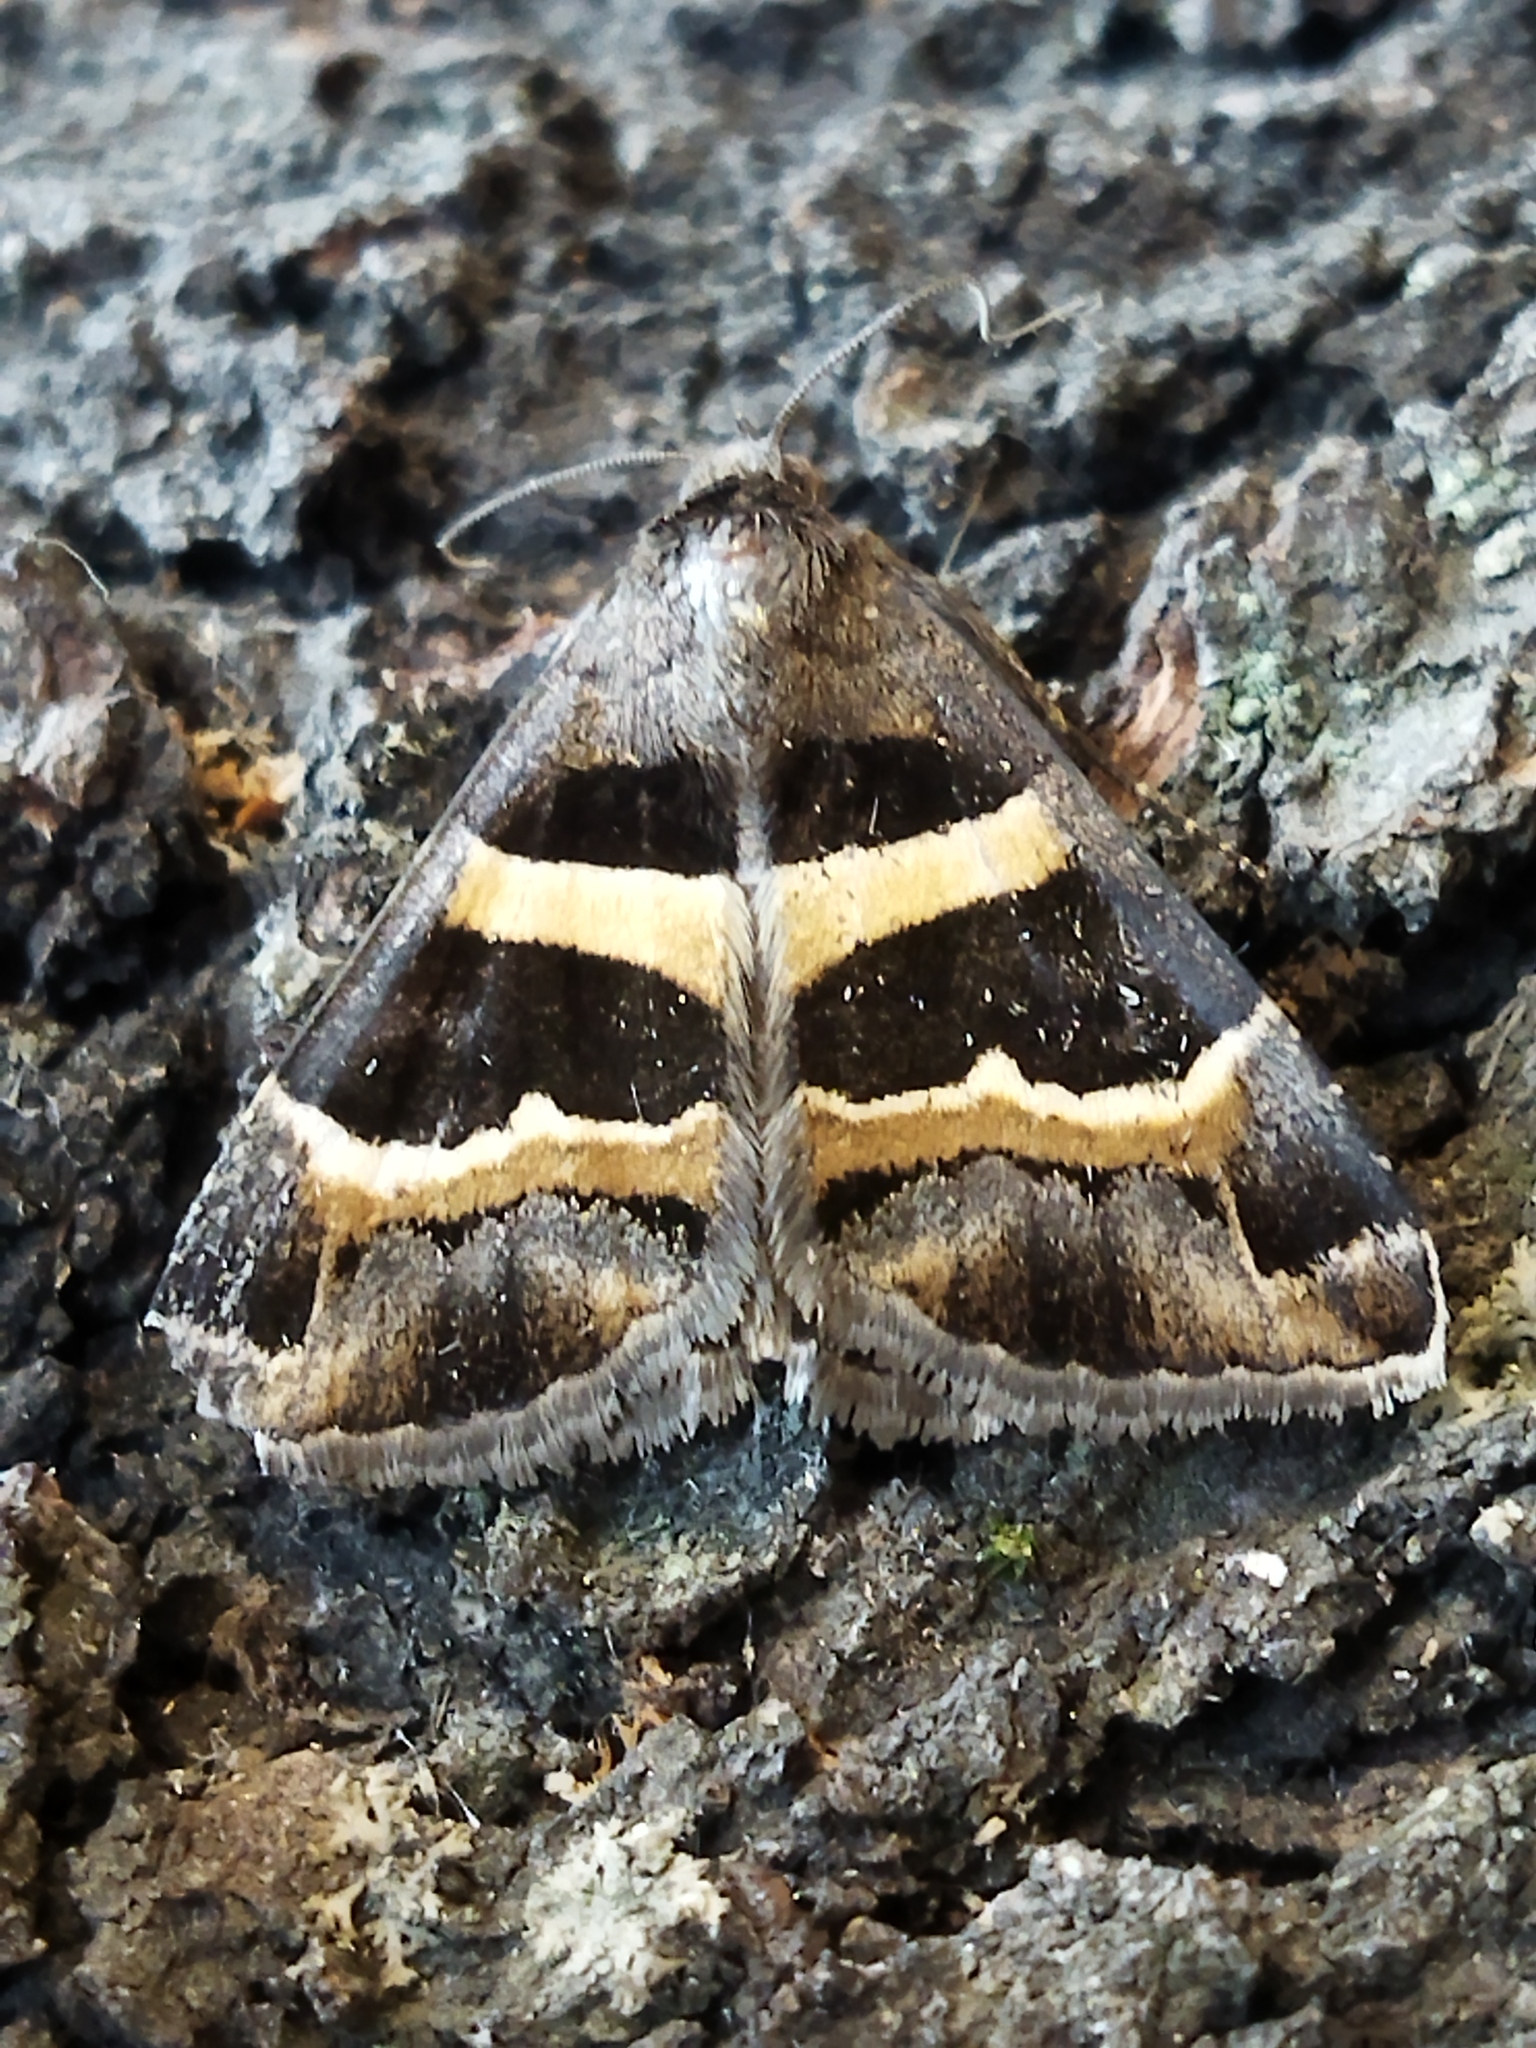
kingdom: Animalia
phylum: Arthropoda
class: Insecta
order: Lepidoptera
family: Erebidae
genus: Grammodes
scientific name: Grammodes stolida
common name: Geometrician
